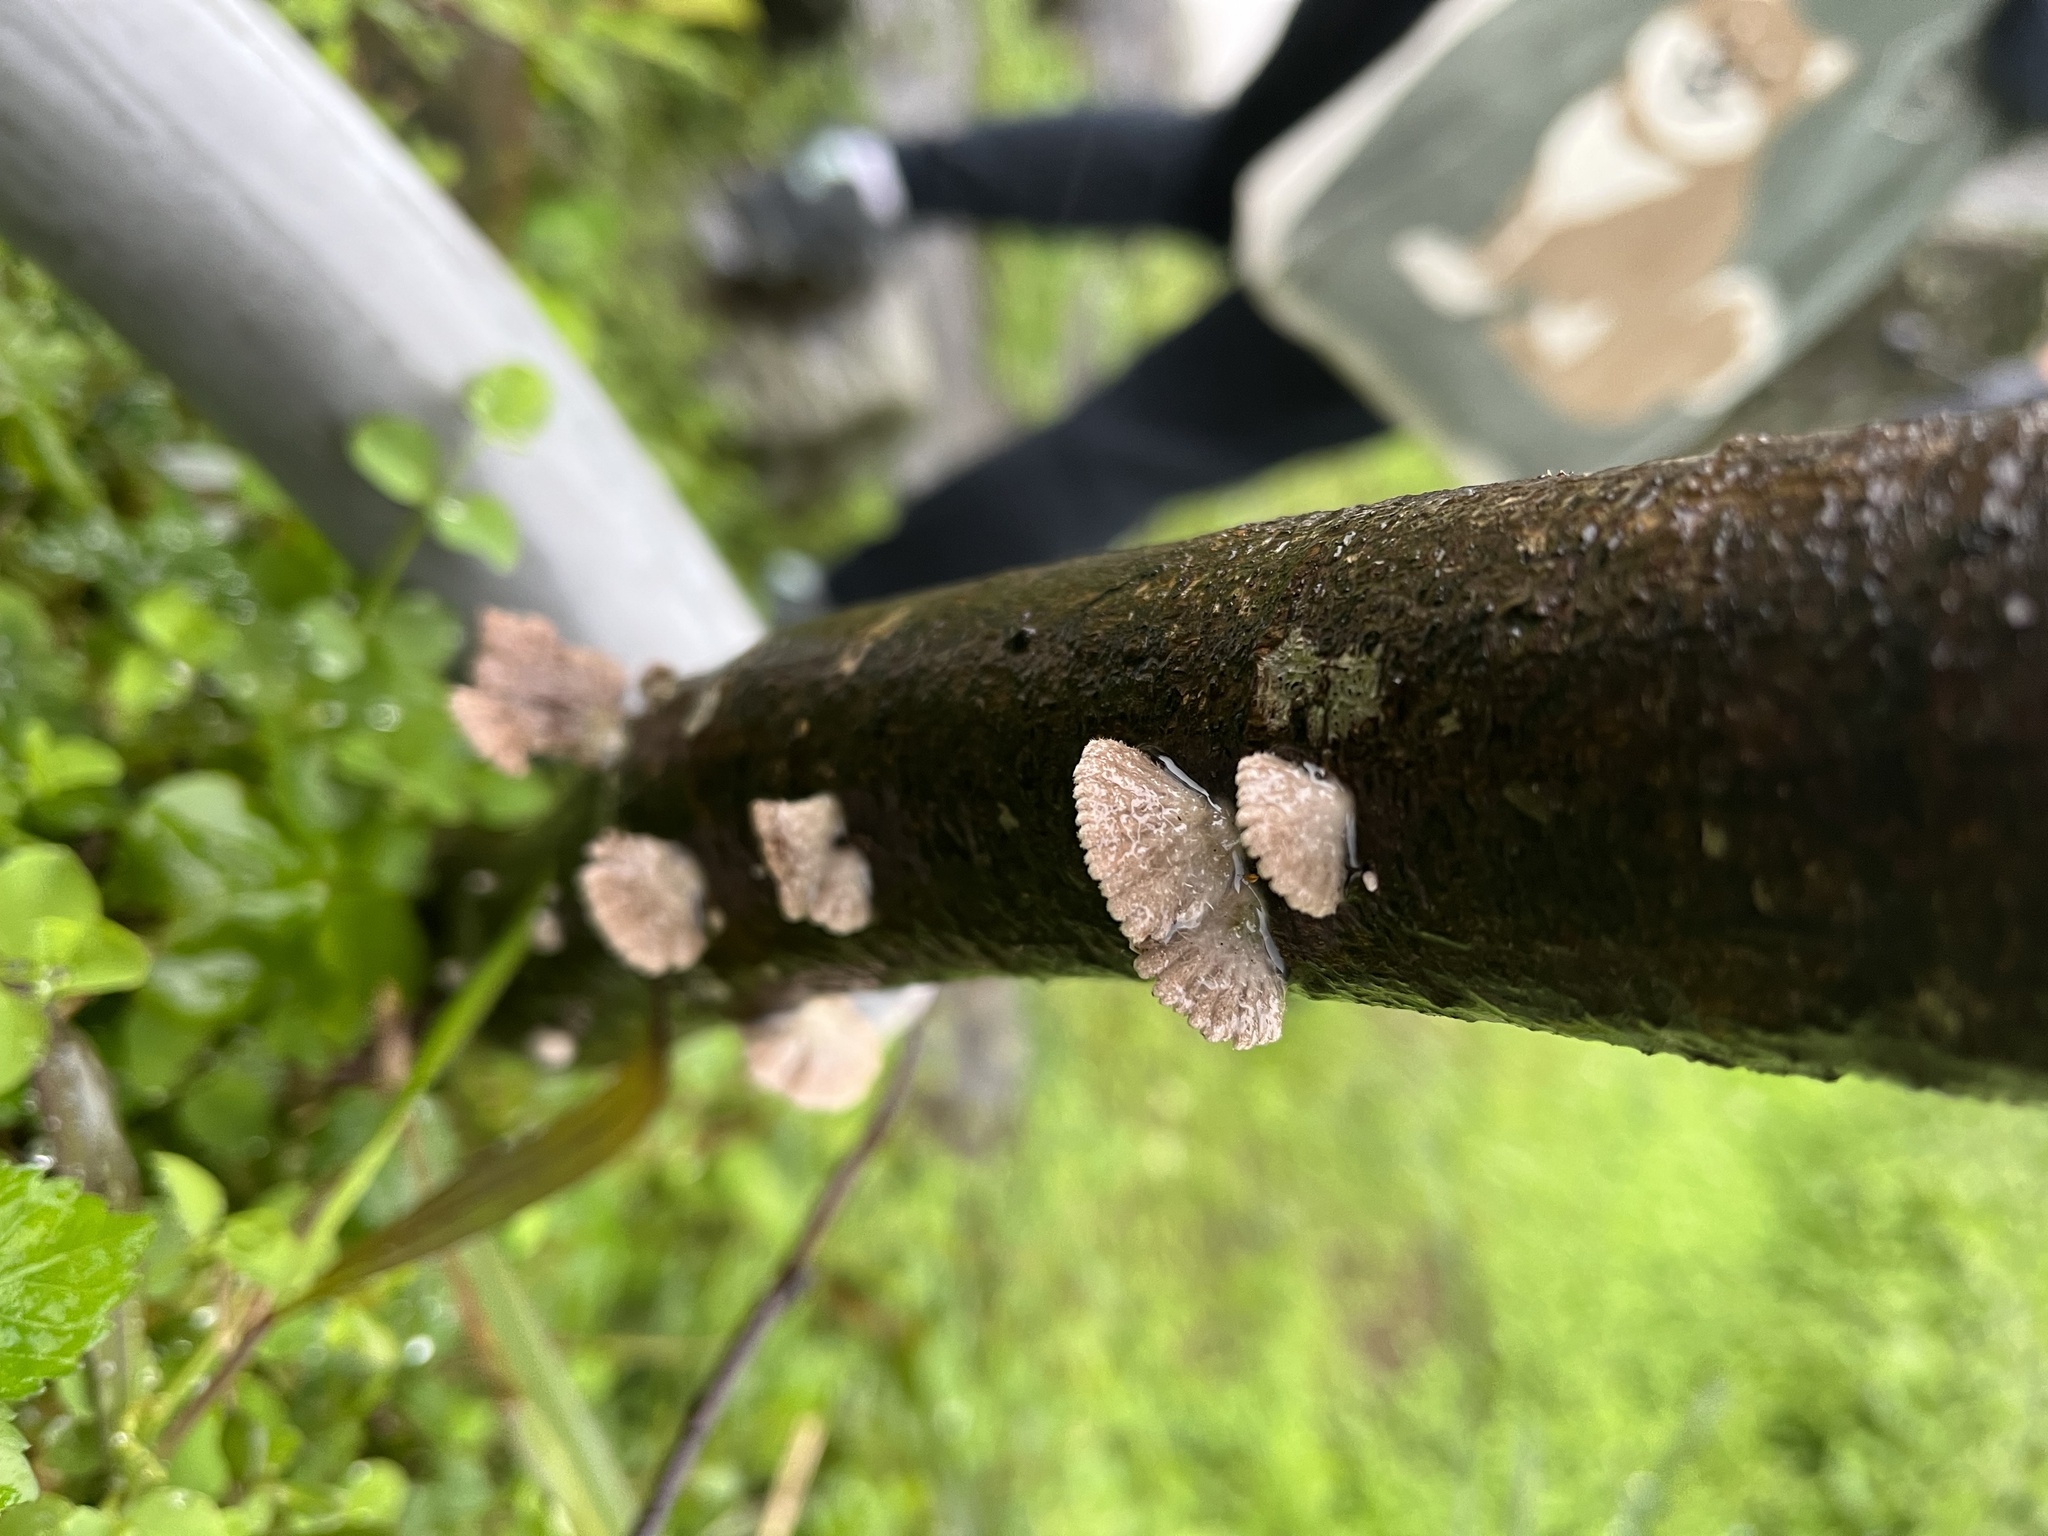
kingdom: Fungi
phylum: Basidiomycota
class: Agaricomycetes
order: Agaricales
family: Schizophyllaceae
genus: Schizophyllum
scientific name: Schizophyllum commune
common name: Common porecrust
